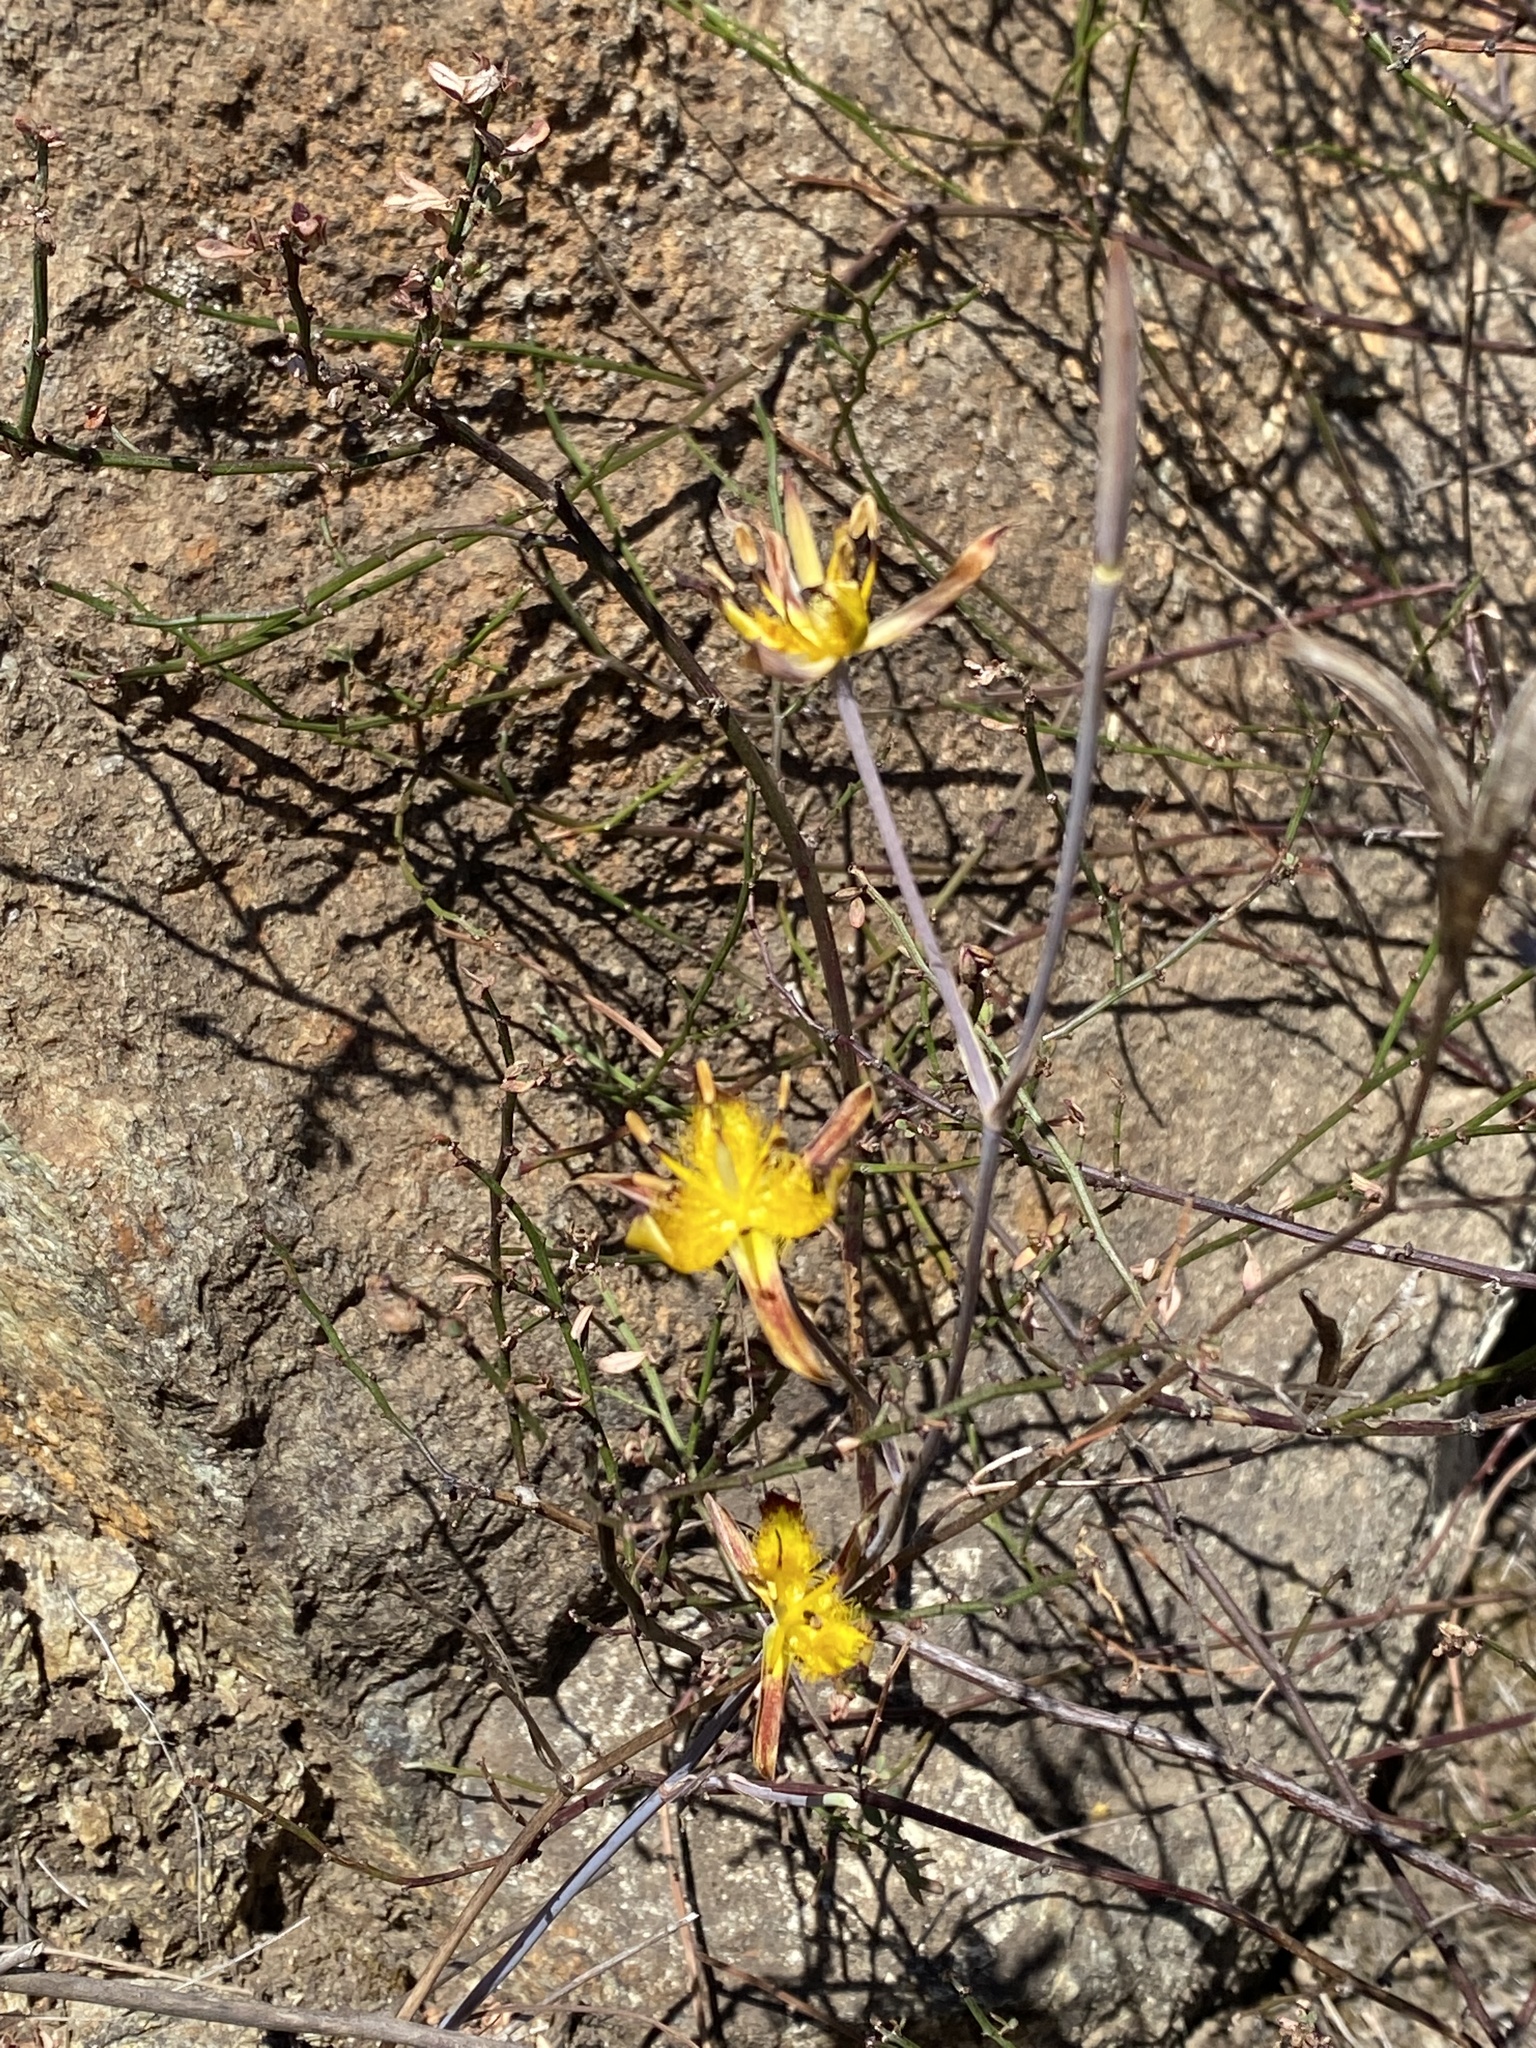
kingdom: Plantae
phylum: Tracheophyta
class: Liliopsida
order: Liliales
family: Liliaceae
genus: Calochortus
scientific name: Calochortus obispoensis
